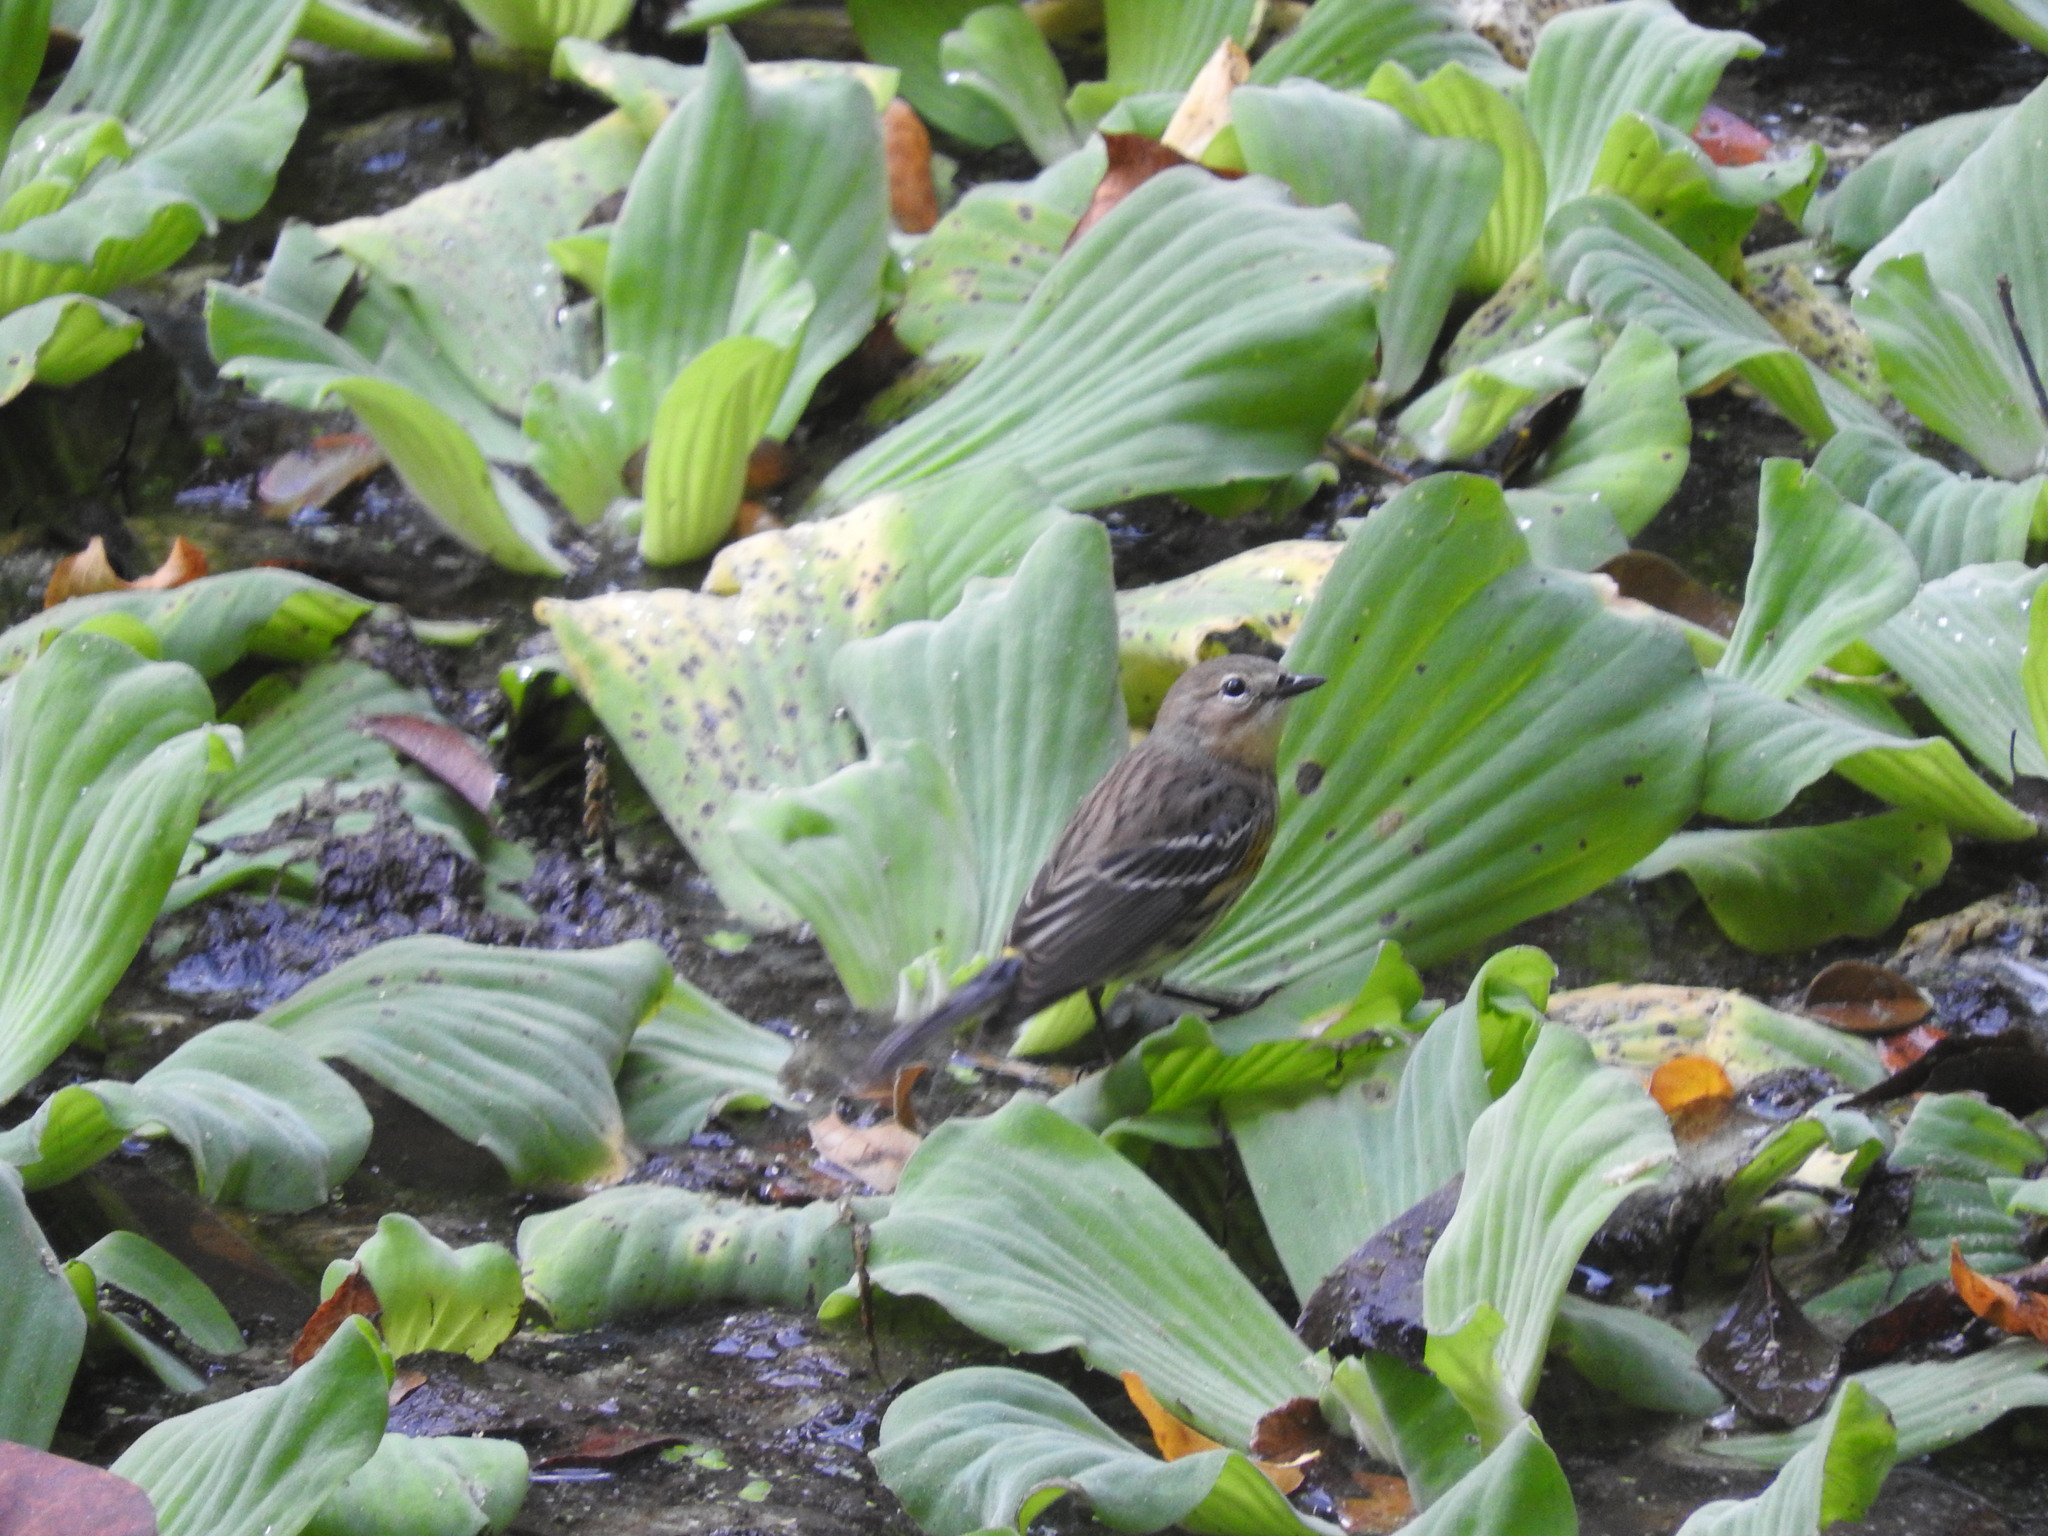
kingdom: Animalia
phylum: Chordata
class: Aves
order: Passeriformes
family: Parulidae
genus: Setophaga
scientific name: Setophaga coronata
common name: Myrtle warbler
